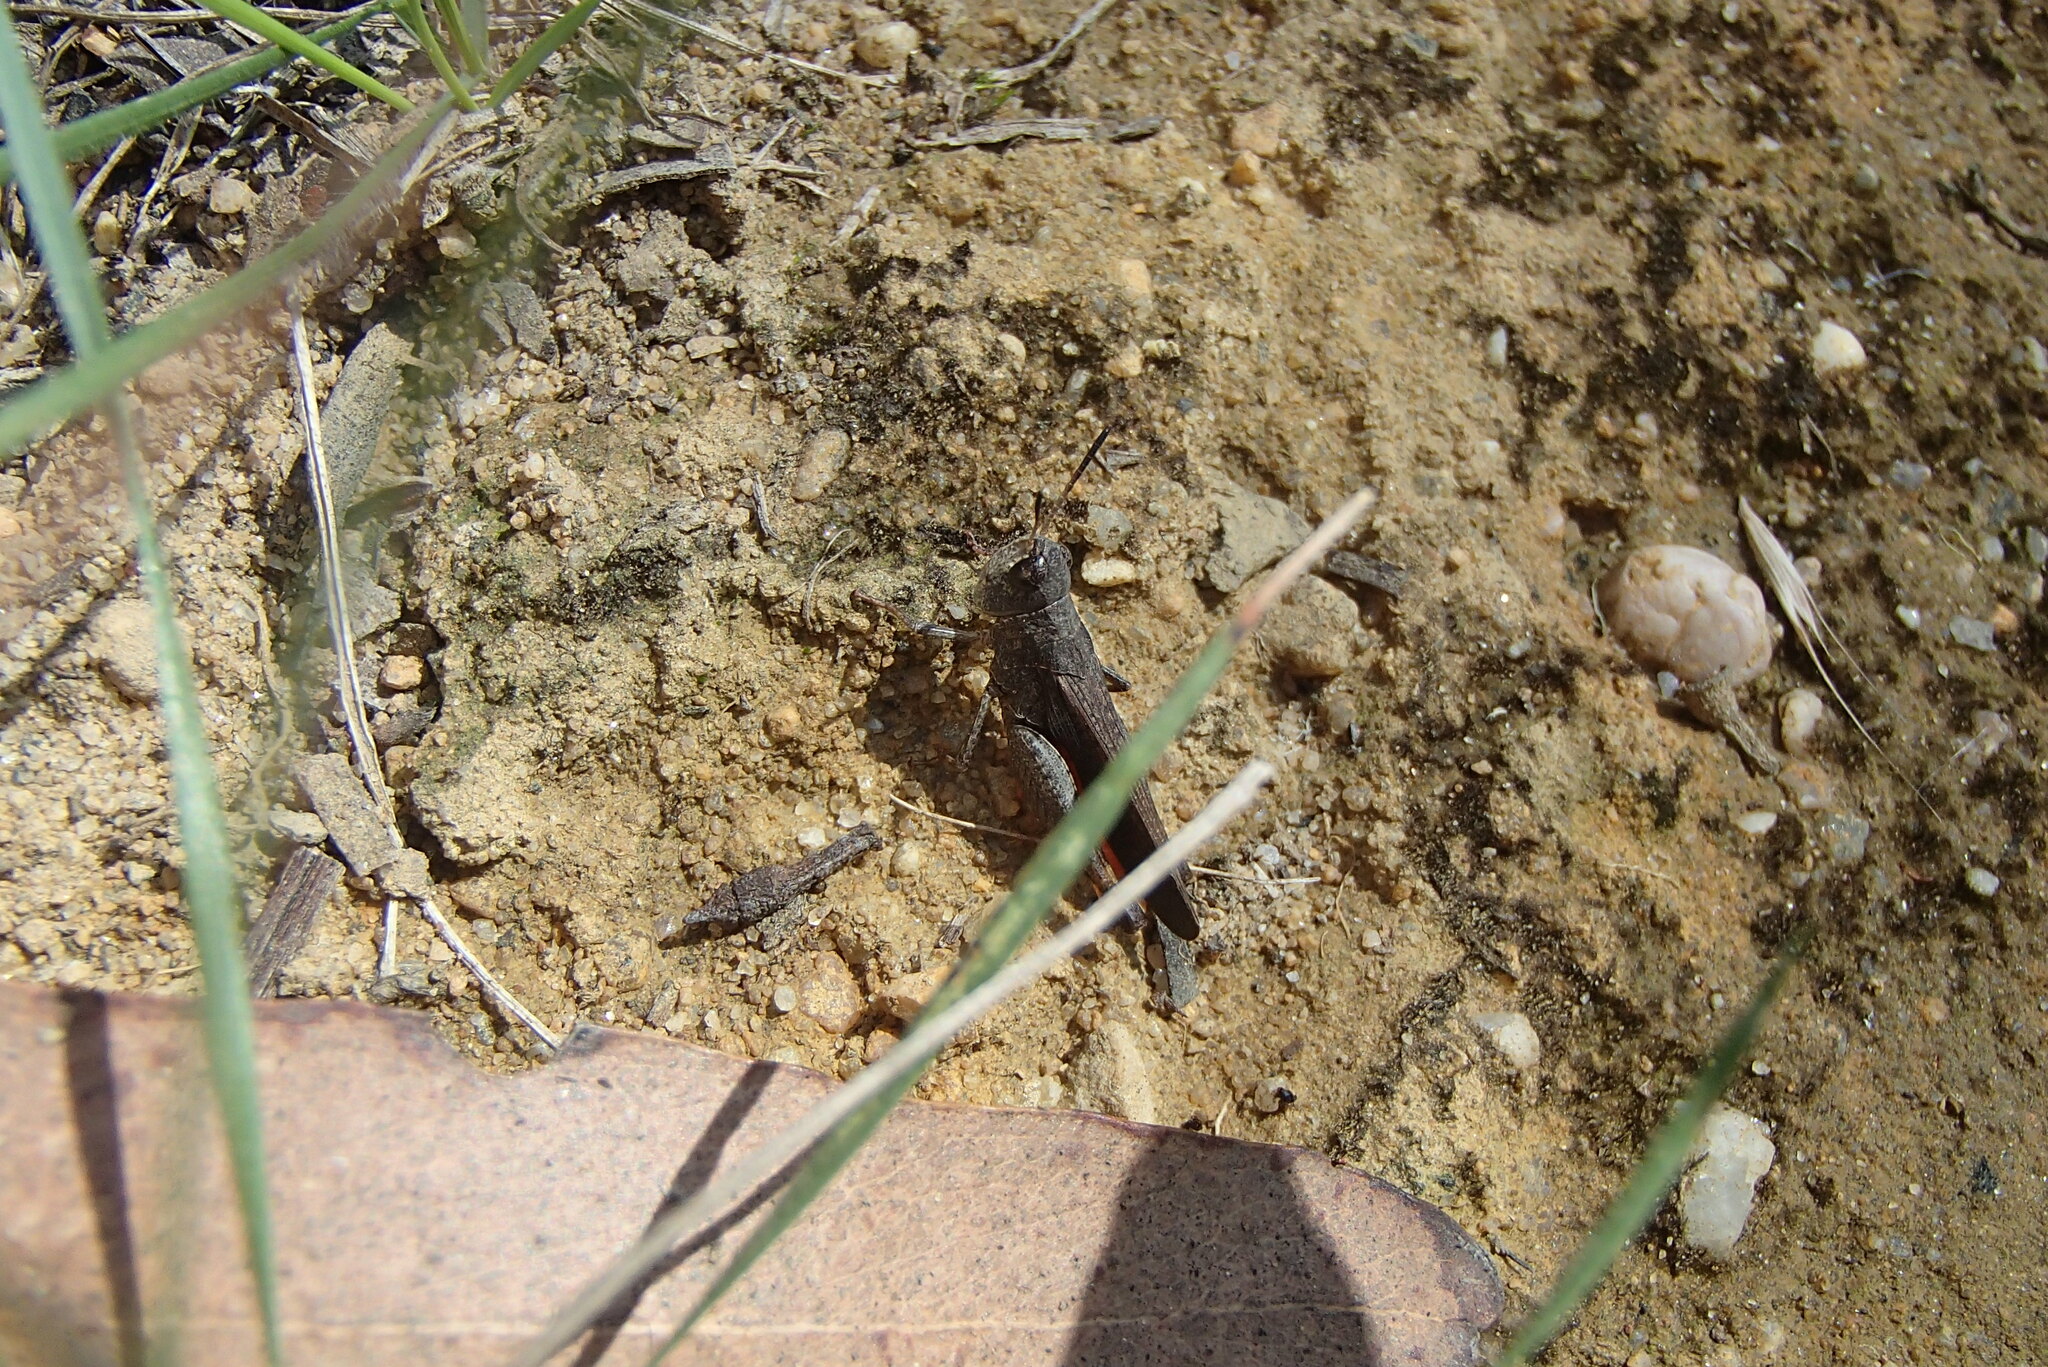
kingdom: Animalia
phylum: Arthropoda
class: Insecta
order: Orthoptera
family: Acrididae
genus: Cryptobothrus
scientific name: Cryptobothrus chrysophorus
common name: Golden bandwing
